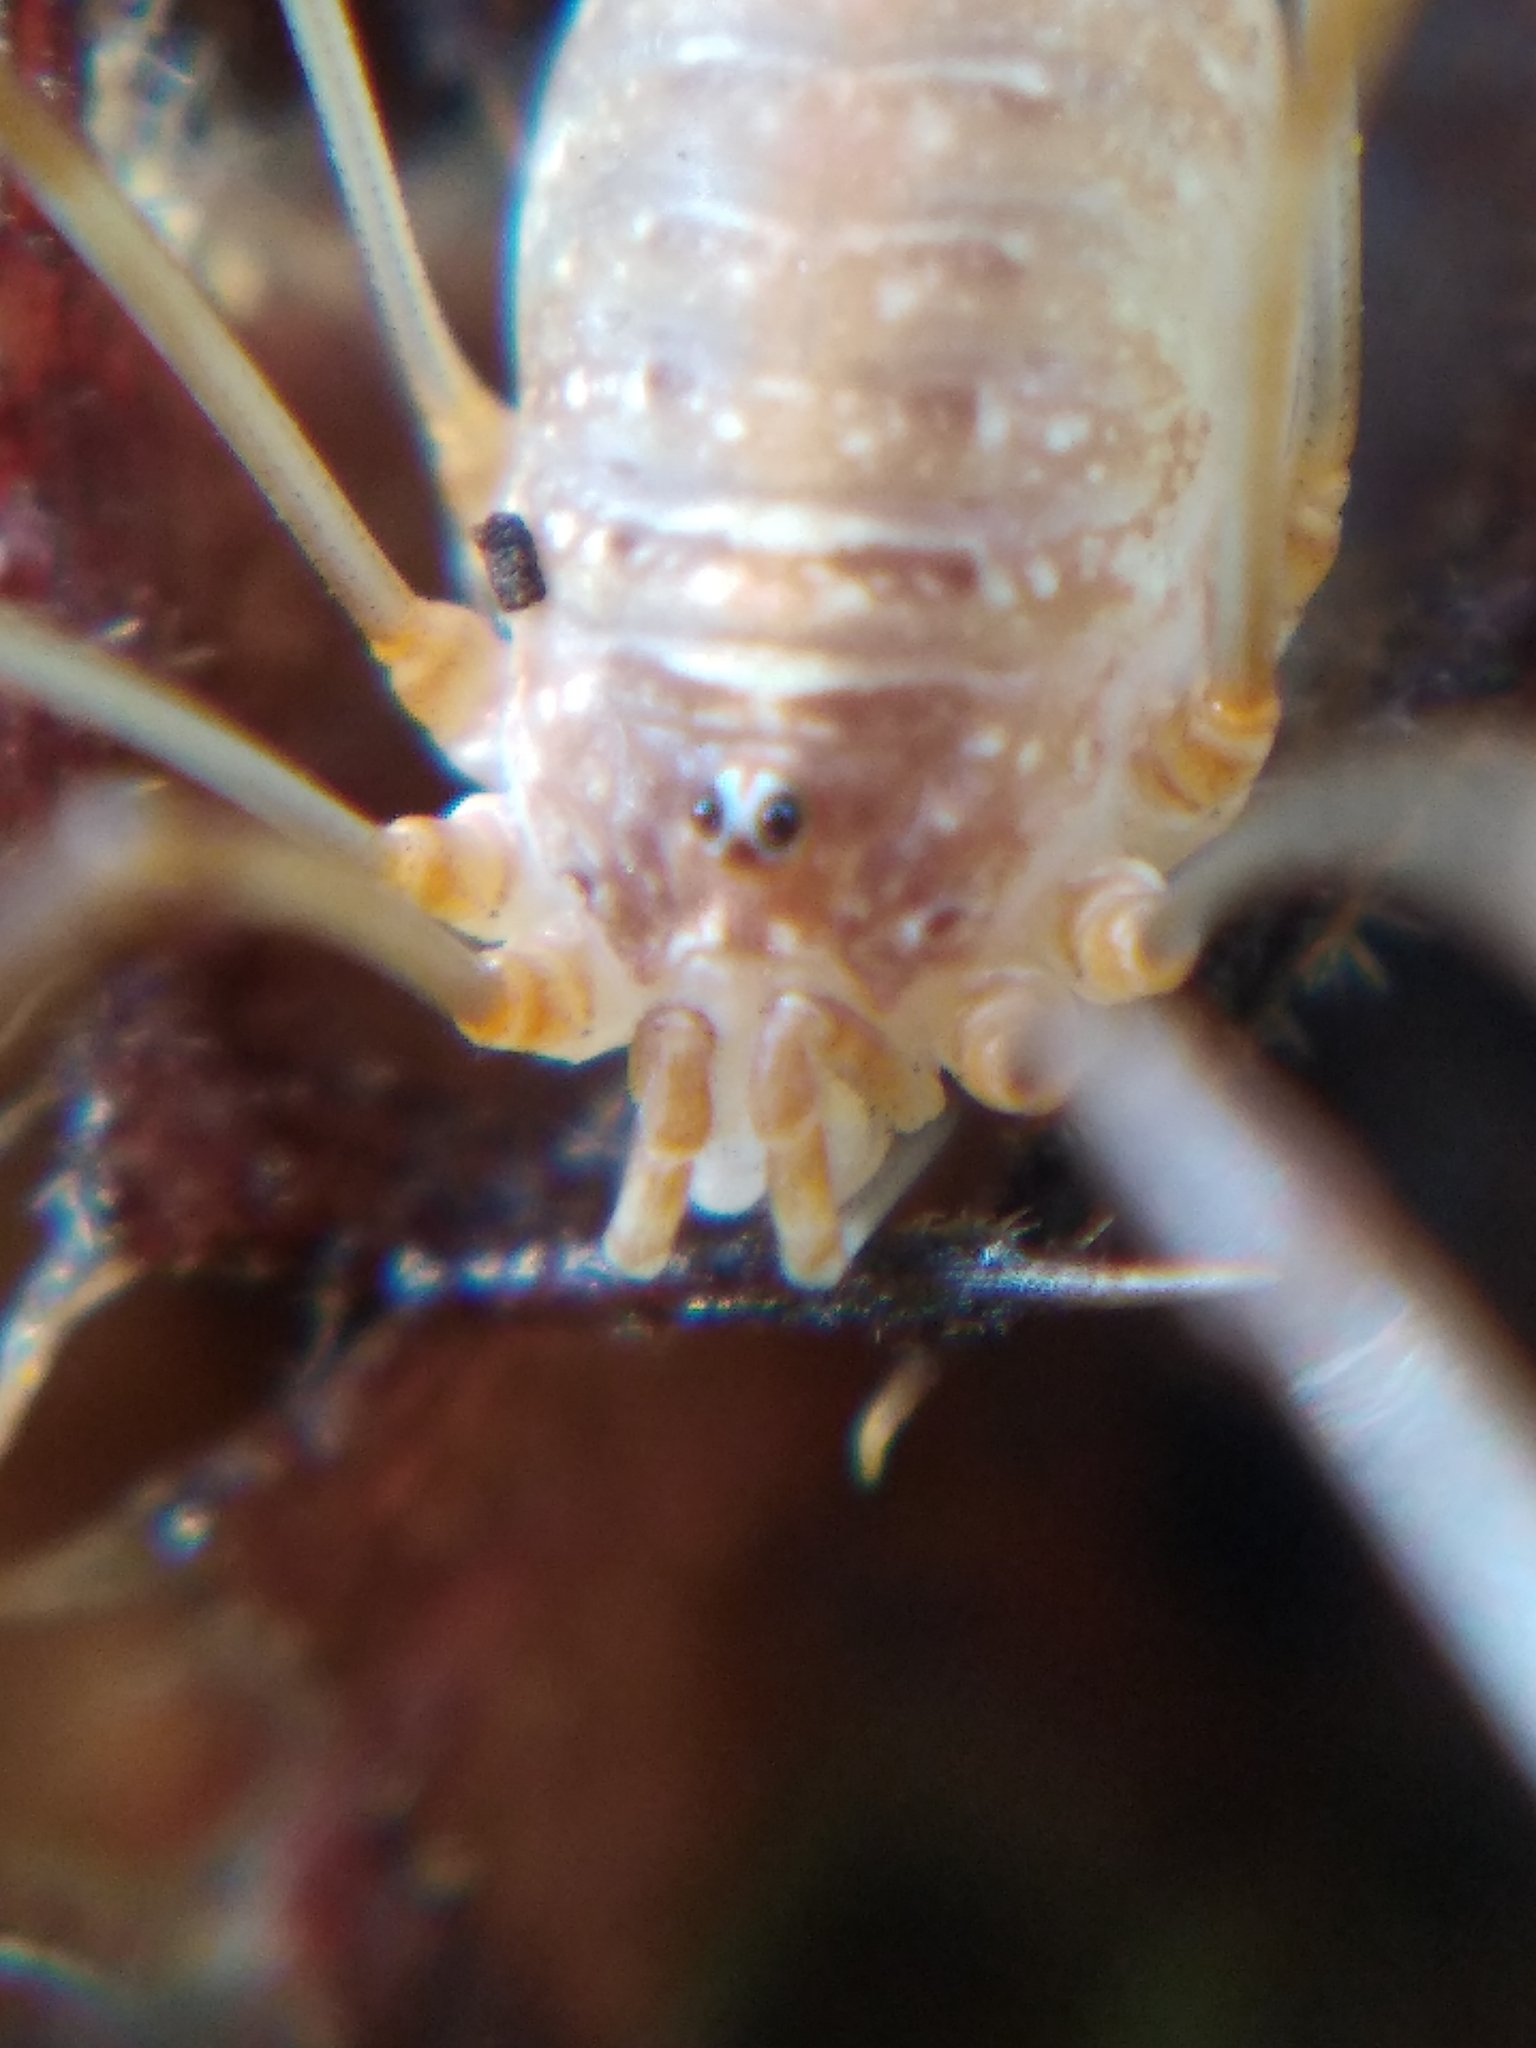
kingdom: Animalia
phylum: Arthropoda
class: Arachnida
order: Opiliones
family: Phalangiidae
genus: Opilio
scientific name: Opilio canestrinii
